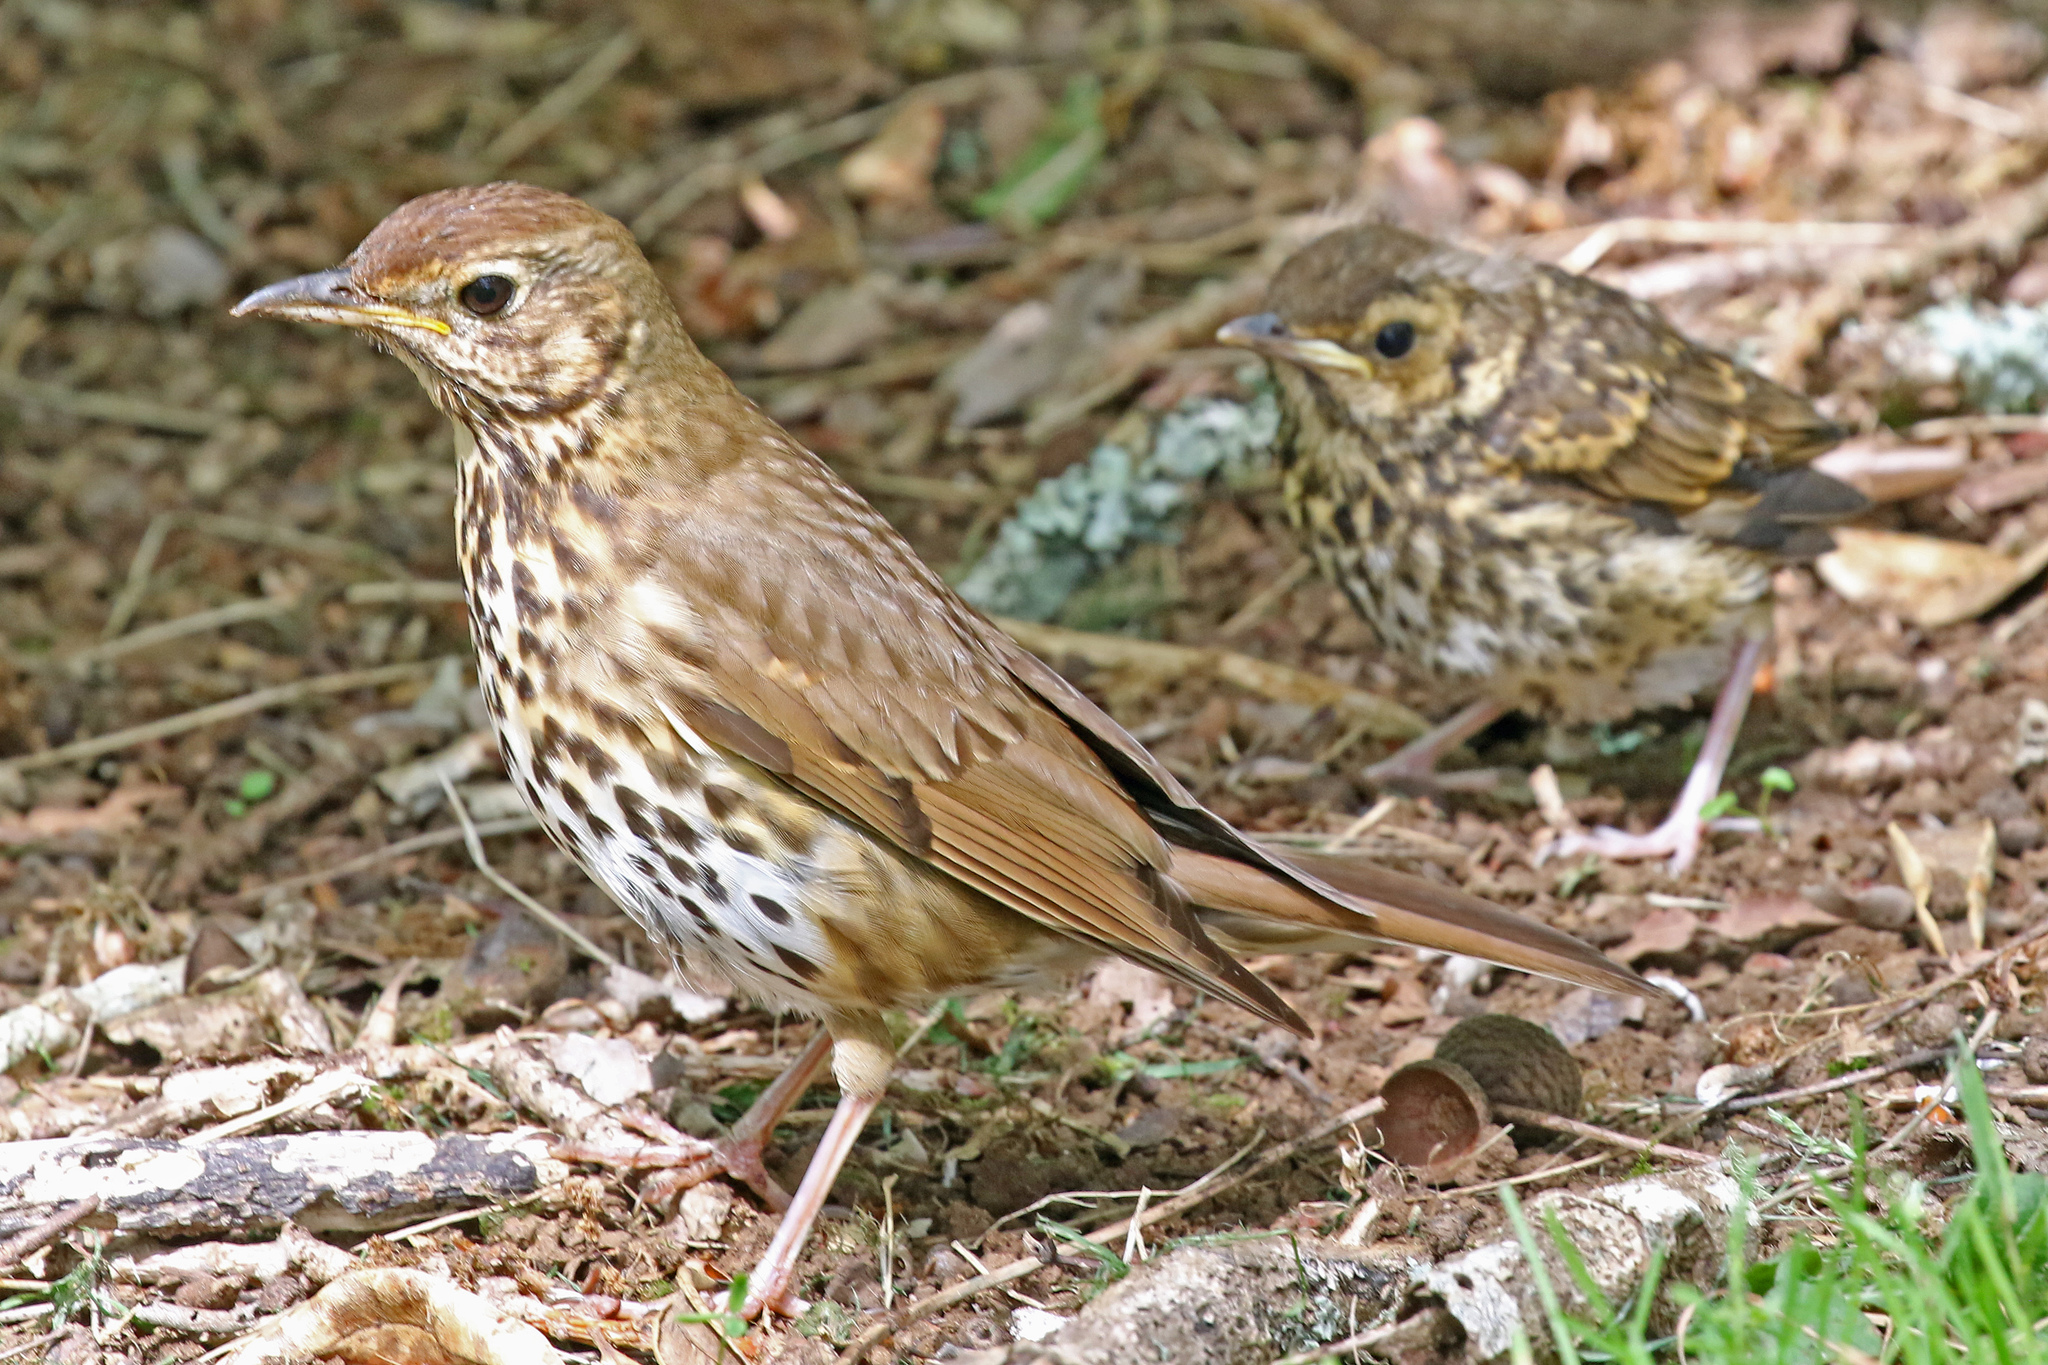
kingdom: Animalia
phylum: Chordata
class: Aves
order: Passeriformes
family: Turdidae
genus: Turdus
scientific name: Turdus philomelos
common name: Song thrush
